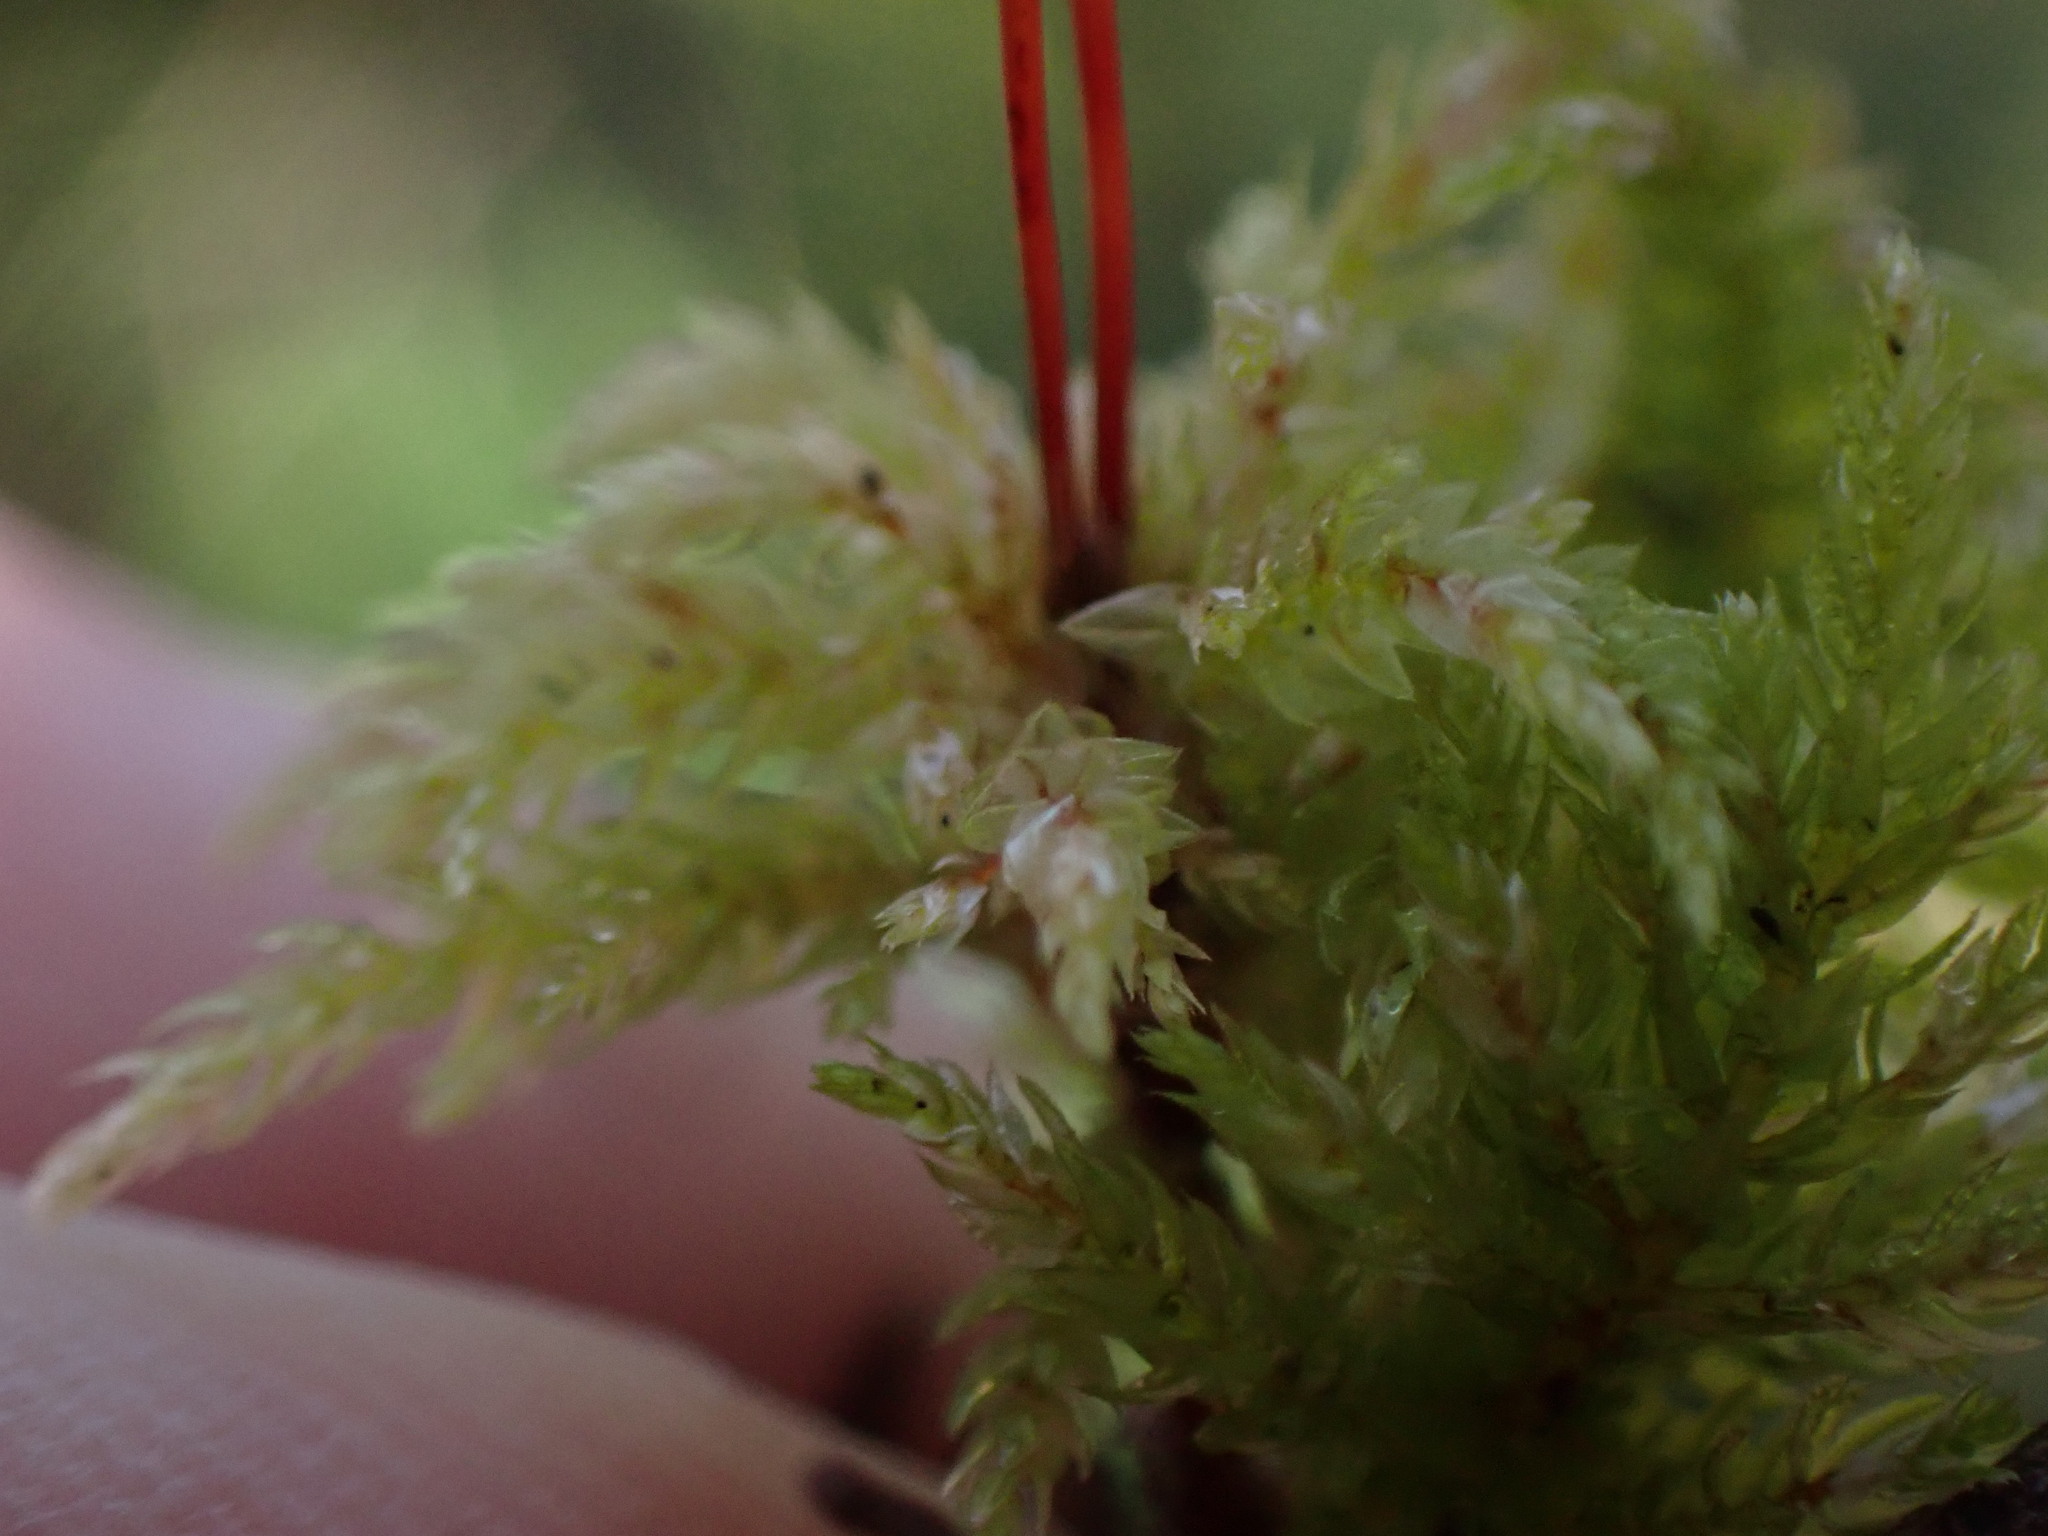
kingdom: Plantae
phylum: Bryophyta
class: Bryopsida
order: Bryales
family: Mniaceae
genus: Leucolepis
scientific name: Leucolepis acanthoneura
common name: Leucolepis umbrella moss
